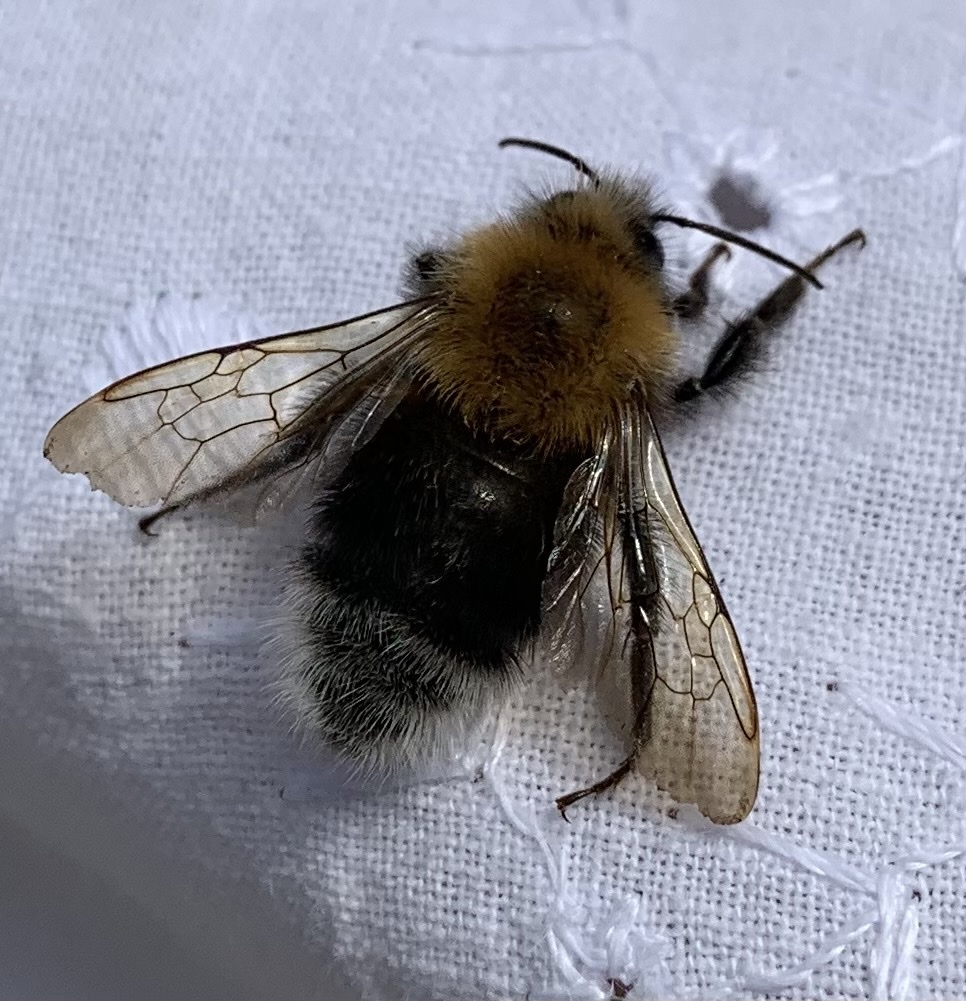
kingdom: Animalia
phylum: Arthropoda
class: Insecta
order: Hymenoptera
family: Apidae
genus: Bombus
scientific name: Bombus hypnorum
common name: New garden bumblebee
